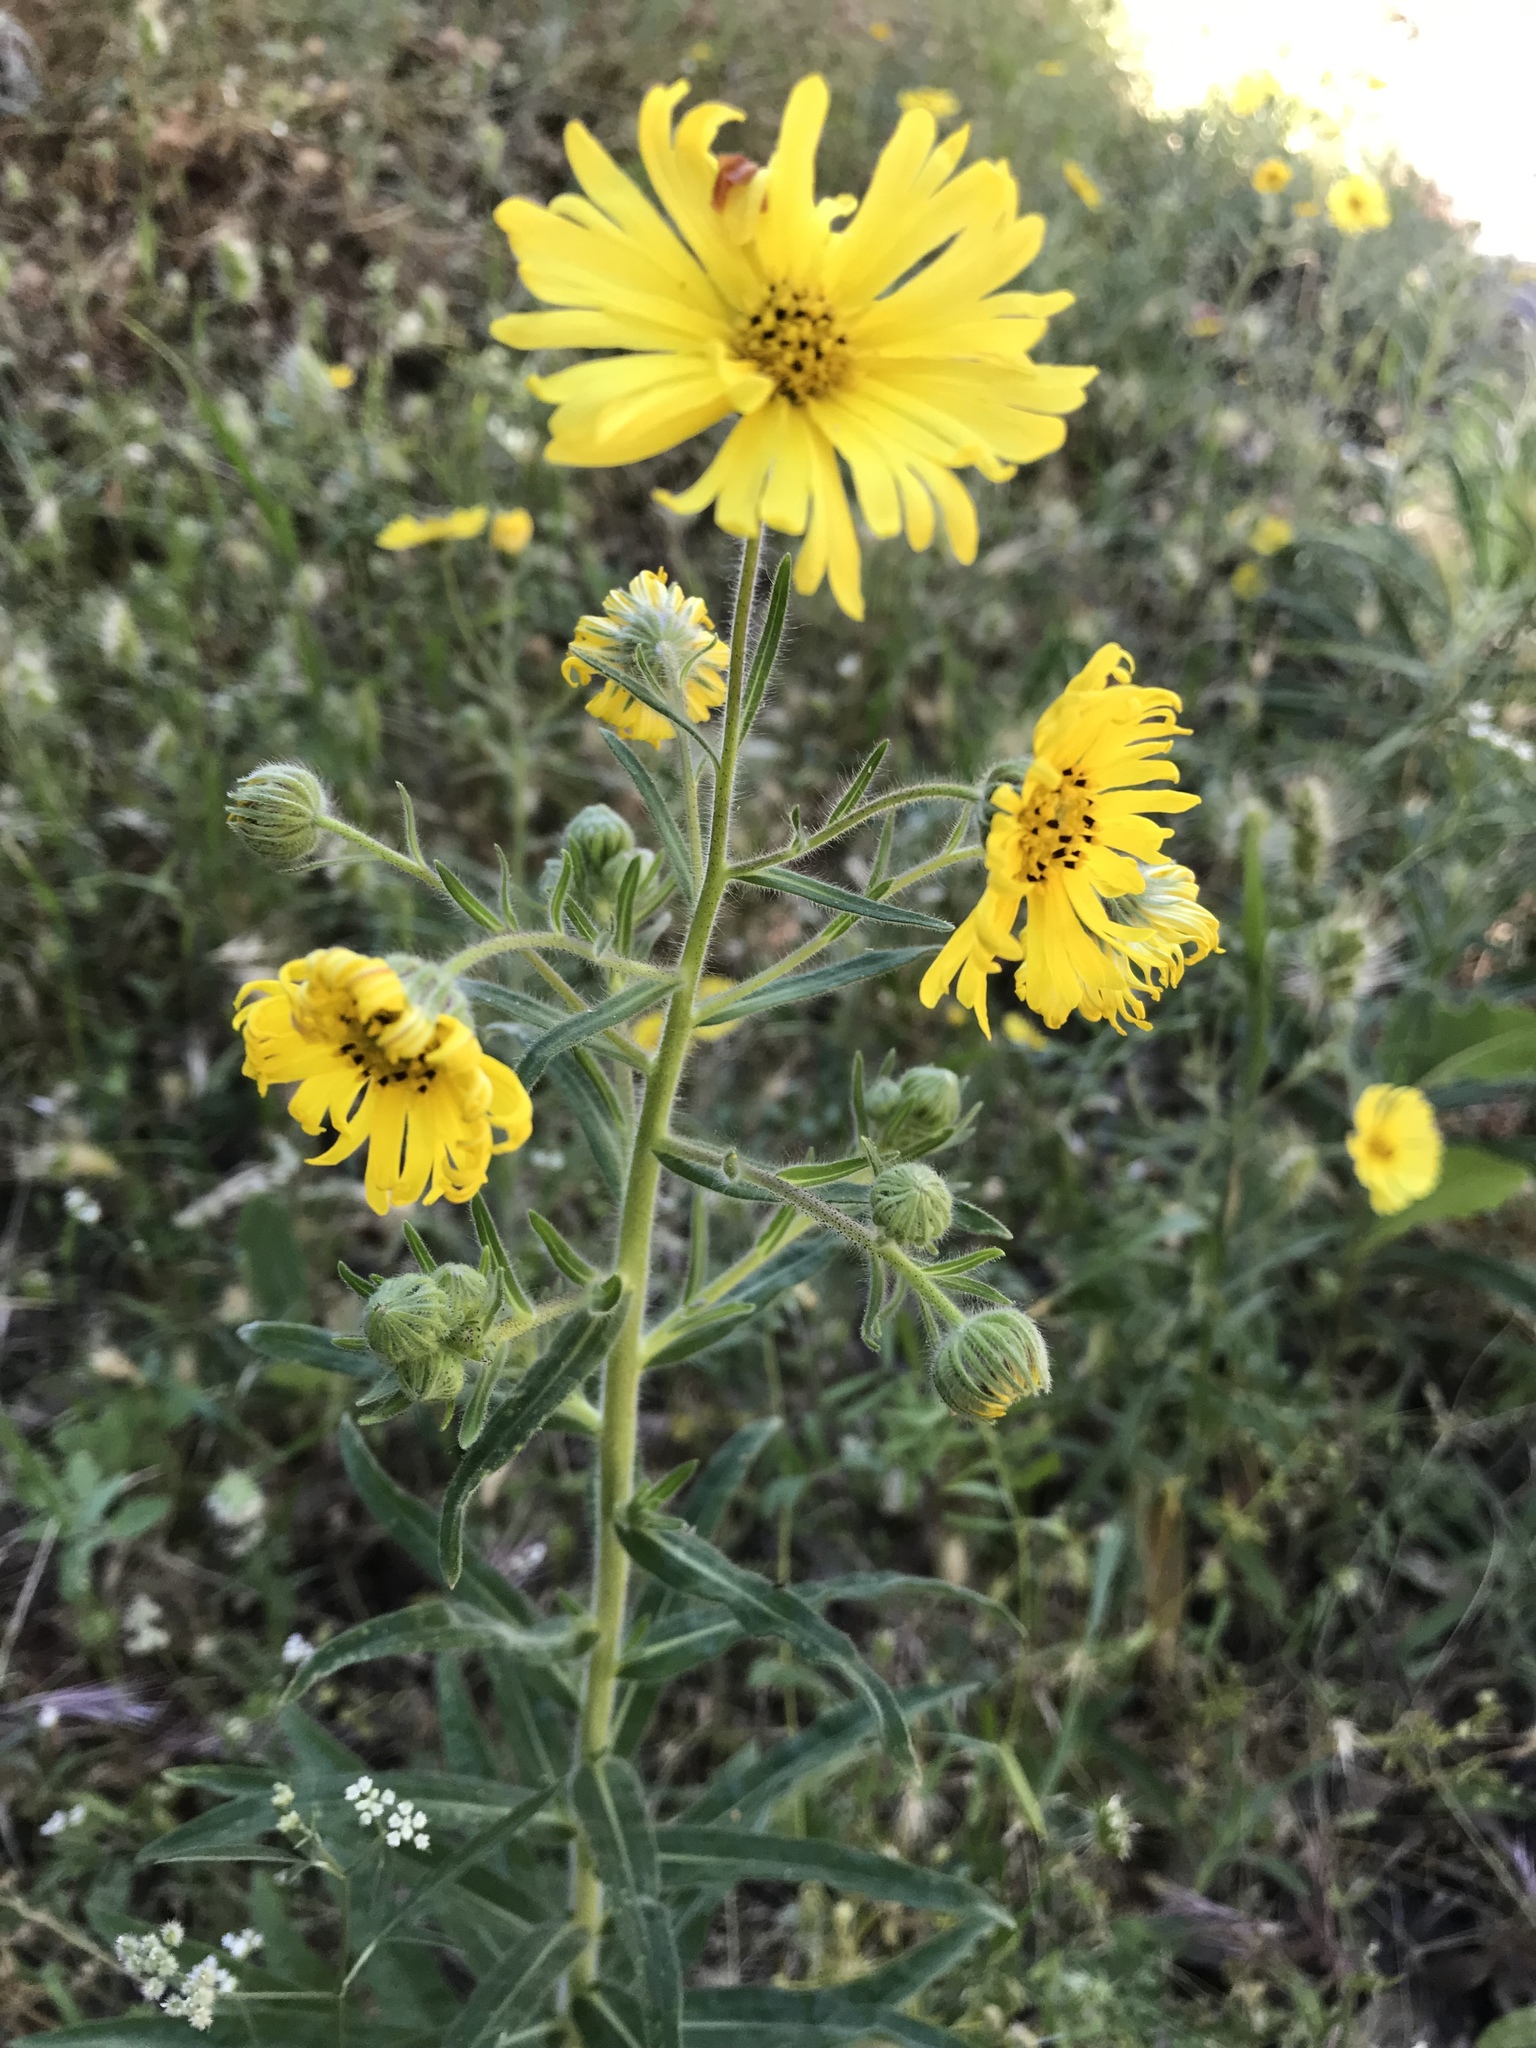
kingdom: Plantae
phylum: Tracheophyta
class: Magnoliopsida
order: Asterales
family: Asteraceae
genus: Madia
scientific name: Madia elegans
